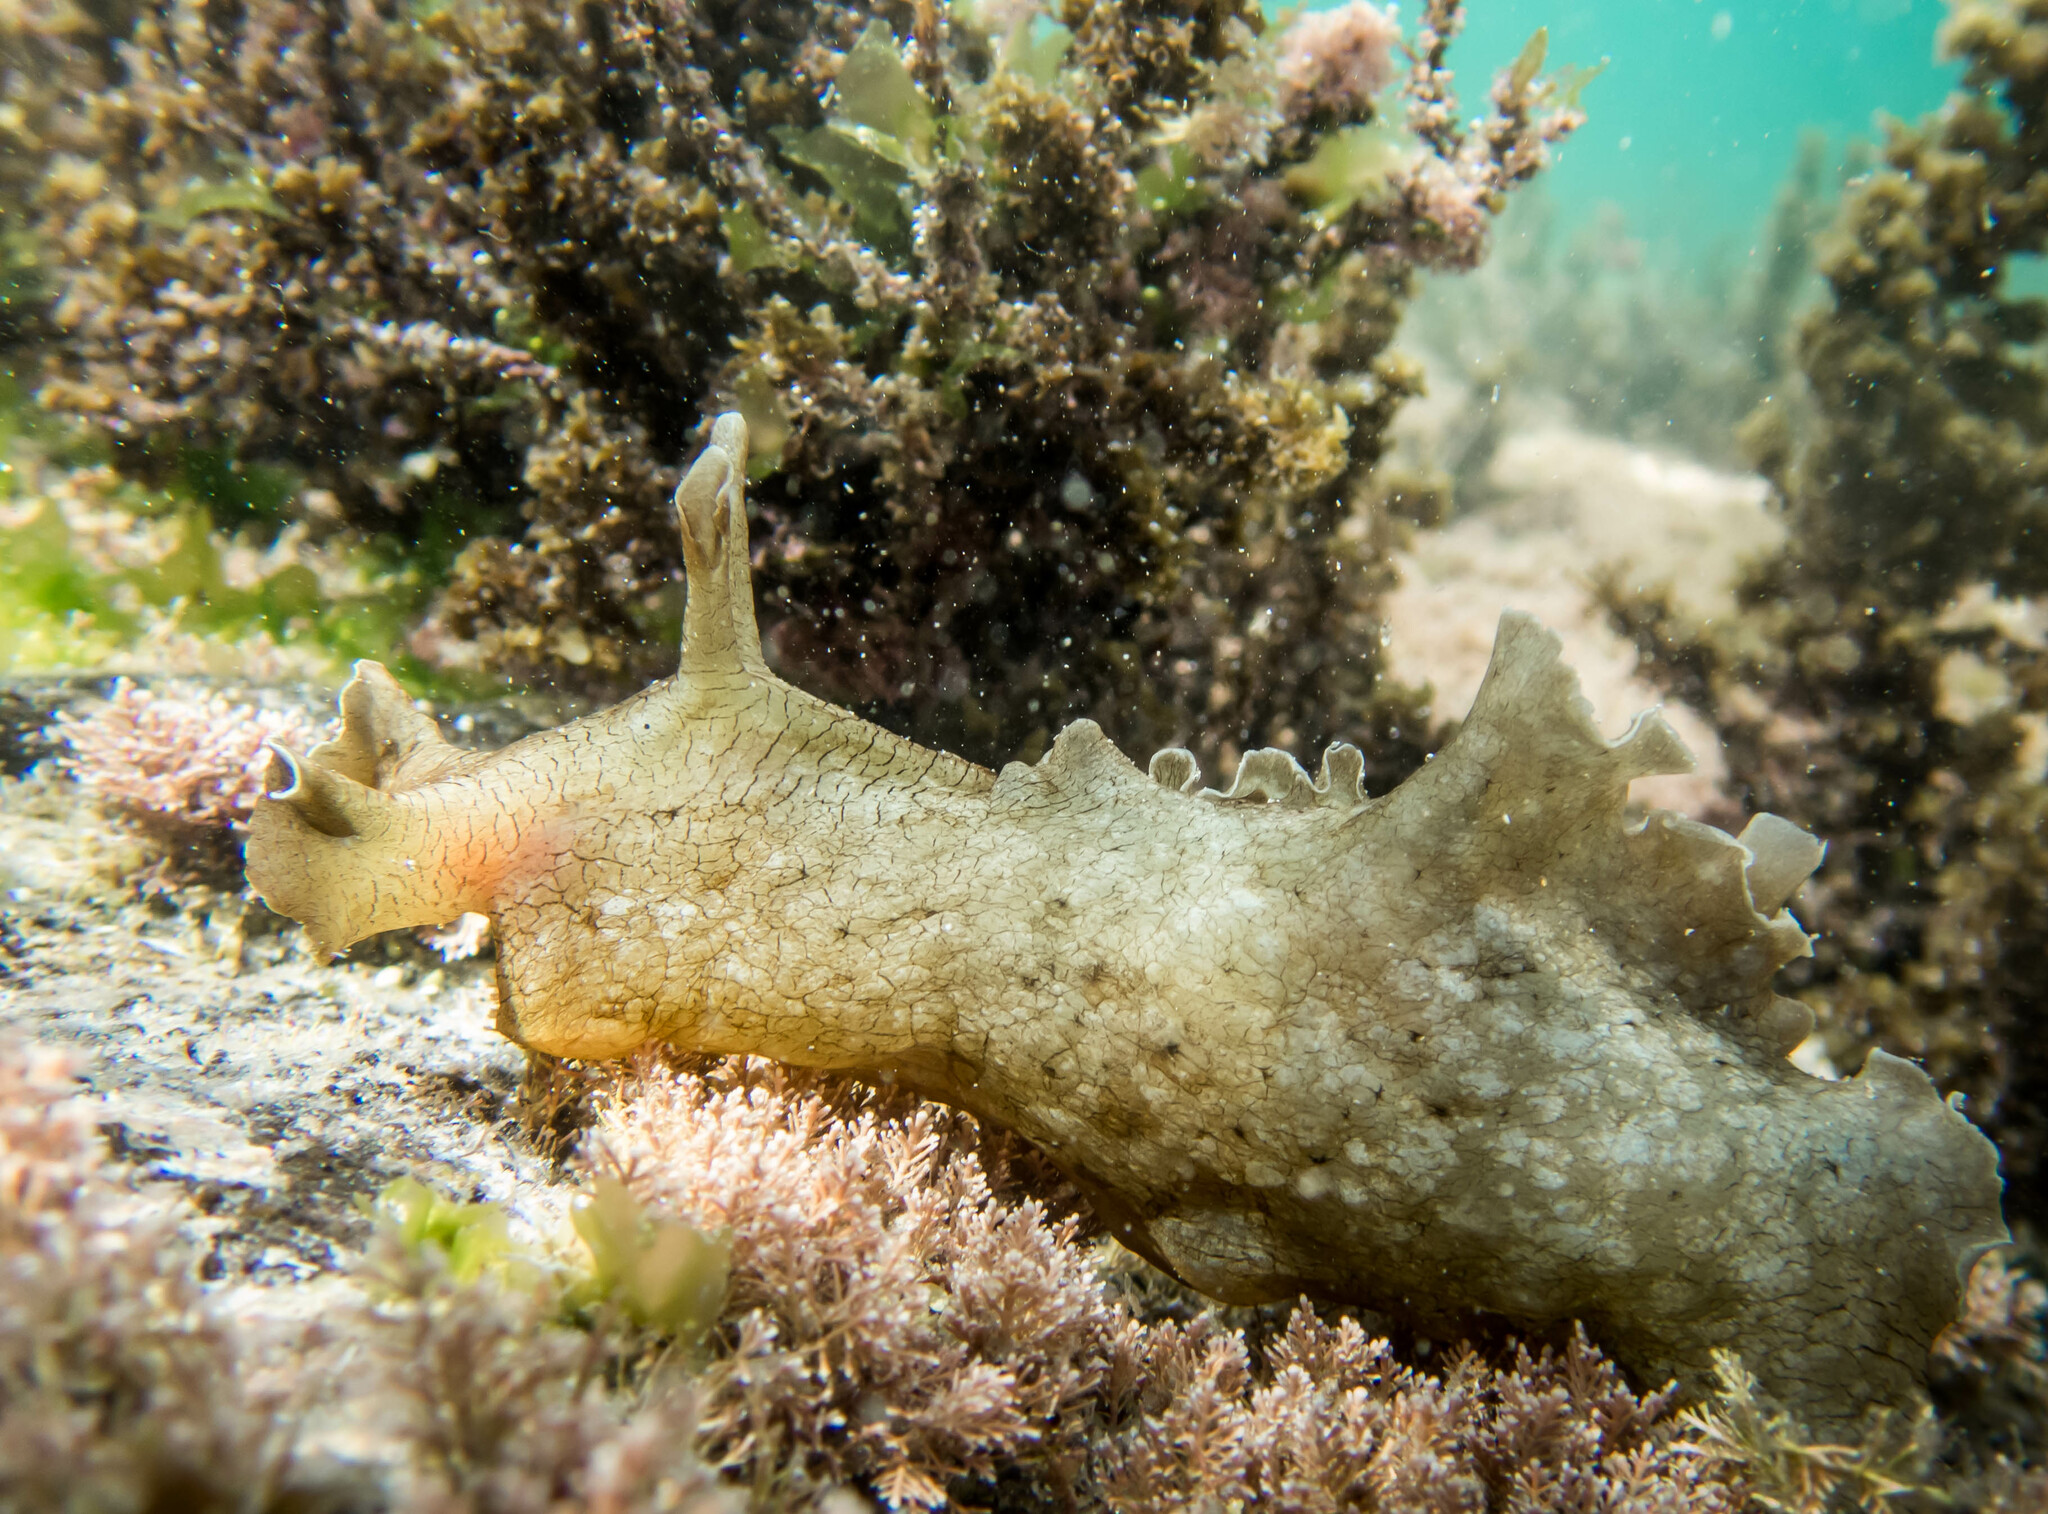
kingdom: Animalia
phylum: Mollusca
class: Gastropoda
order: Aplysiida
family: Aplysiidae
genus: Aplysia
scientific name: Aplysia sydneyensis
